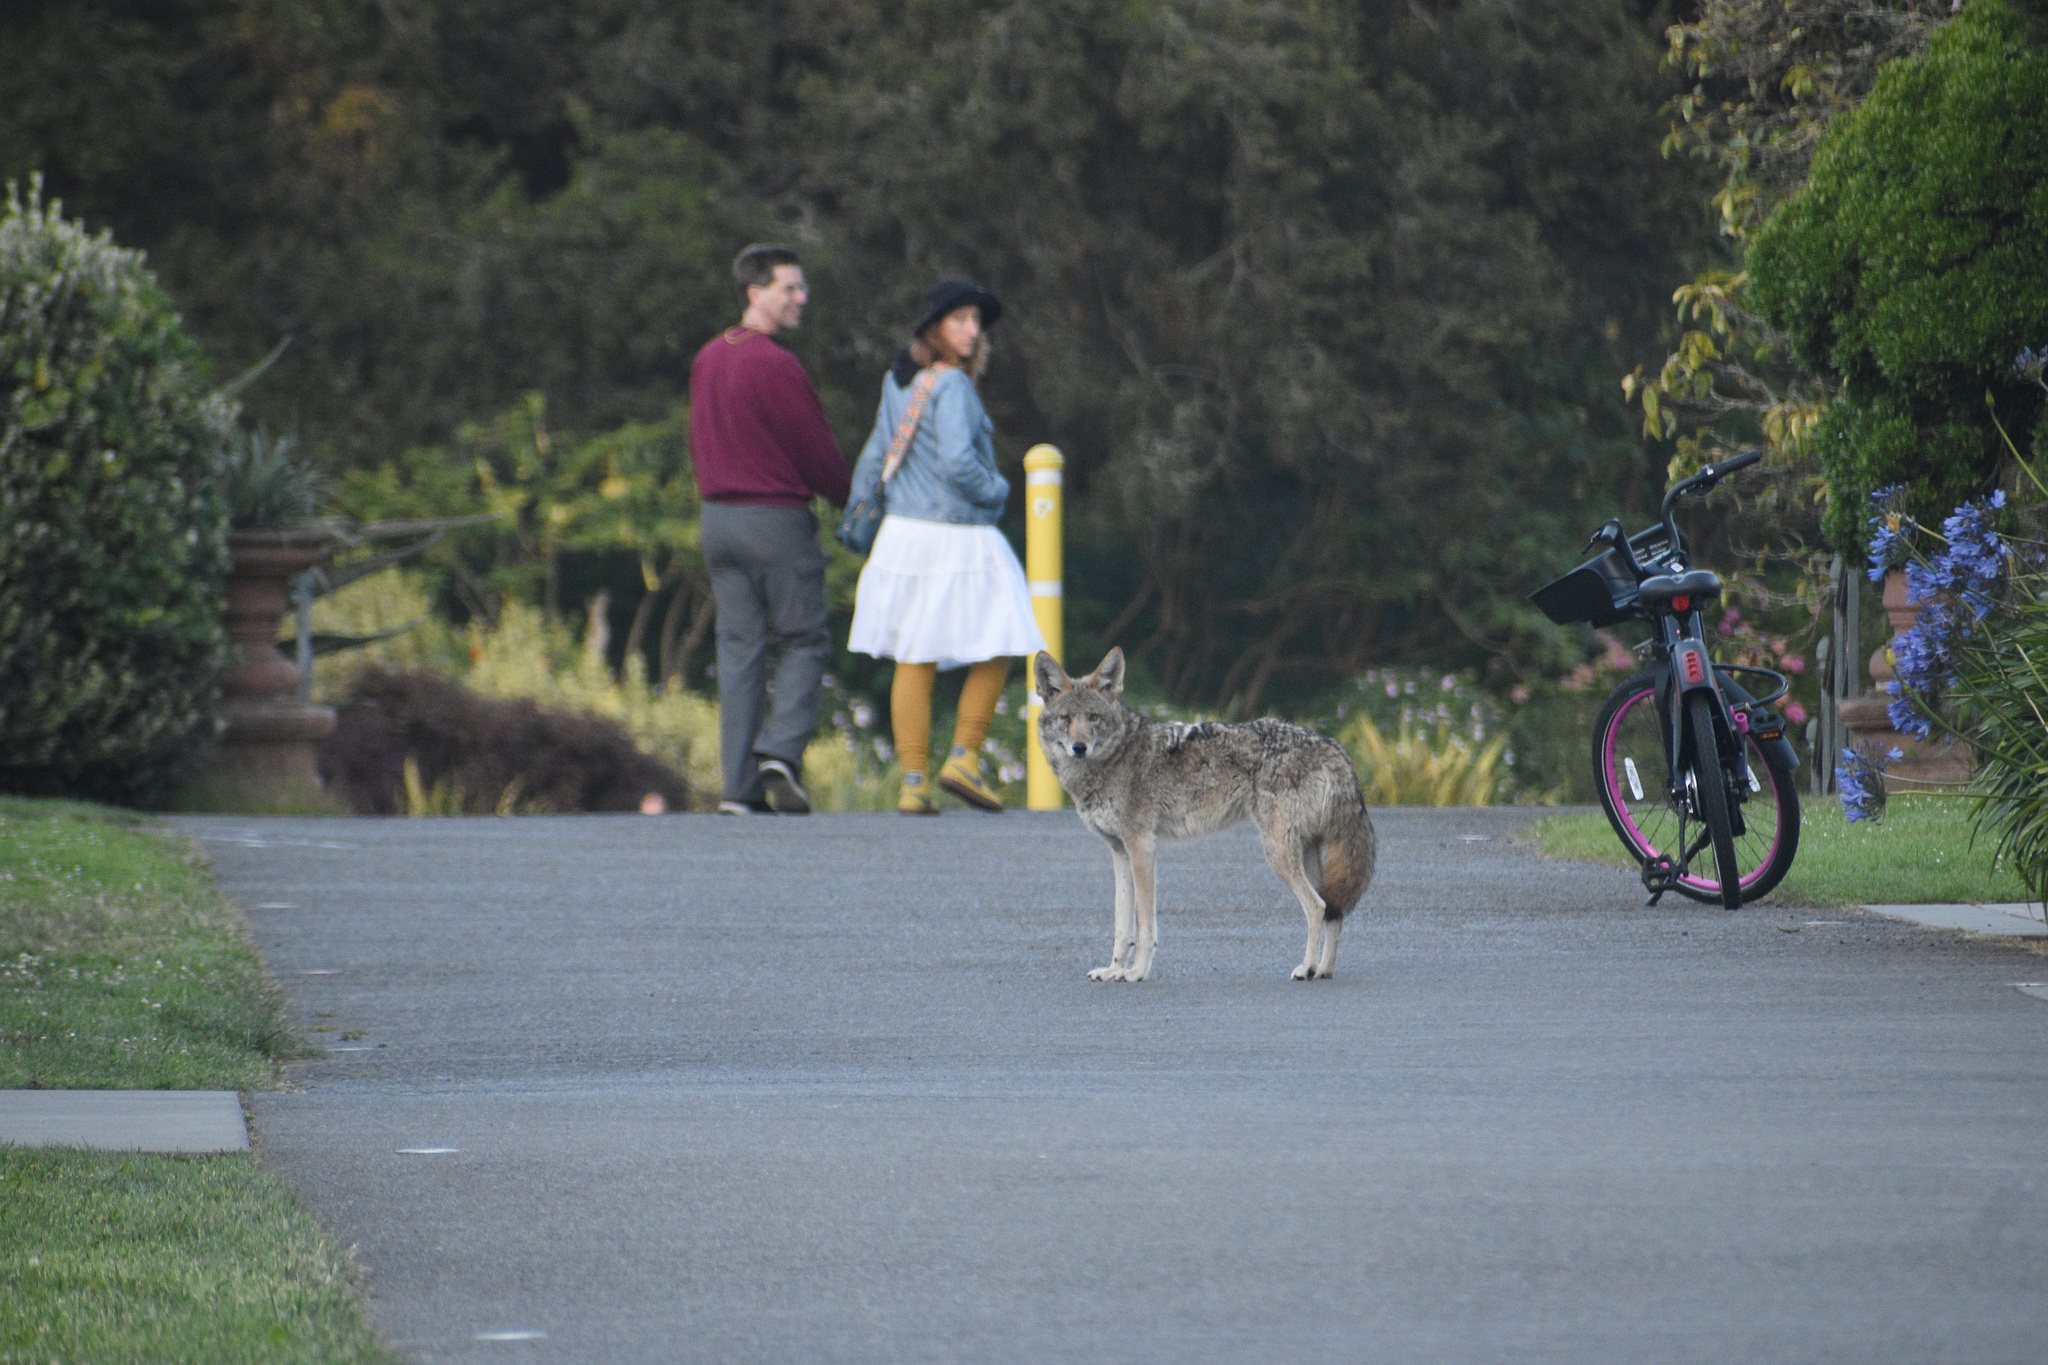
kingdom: Animalia
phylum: Chordata
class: Mammalia
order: Carnivora
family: Canidae
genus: Canis
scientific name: Canis latrans
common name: Coyote
